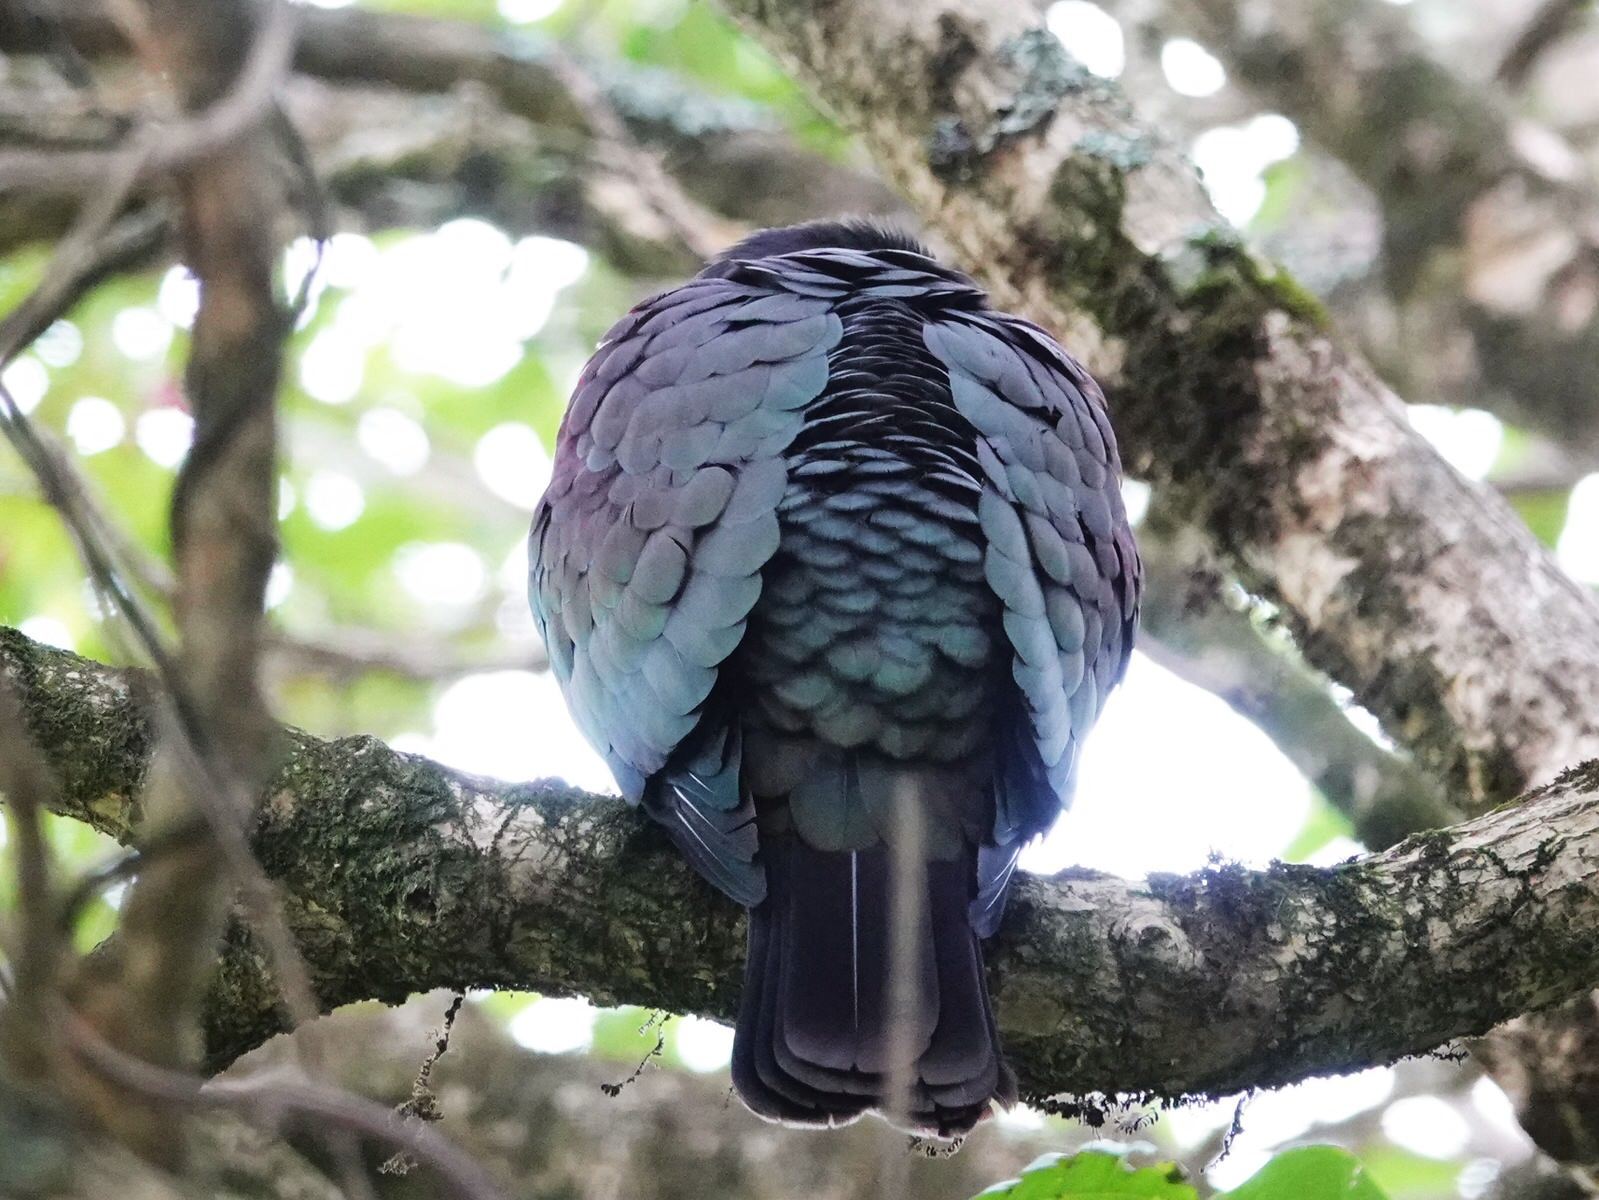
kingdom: Animalia
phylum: Chordata
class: Aves
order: Columbiformes
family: Columbidae
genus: Hemiphaga
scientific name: Hemiphaga novaeseelandiae
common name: New zealand pigeon
